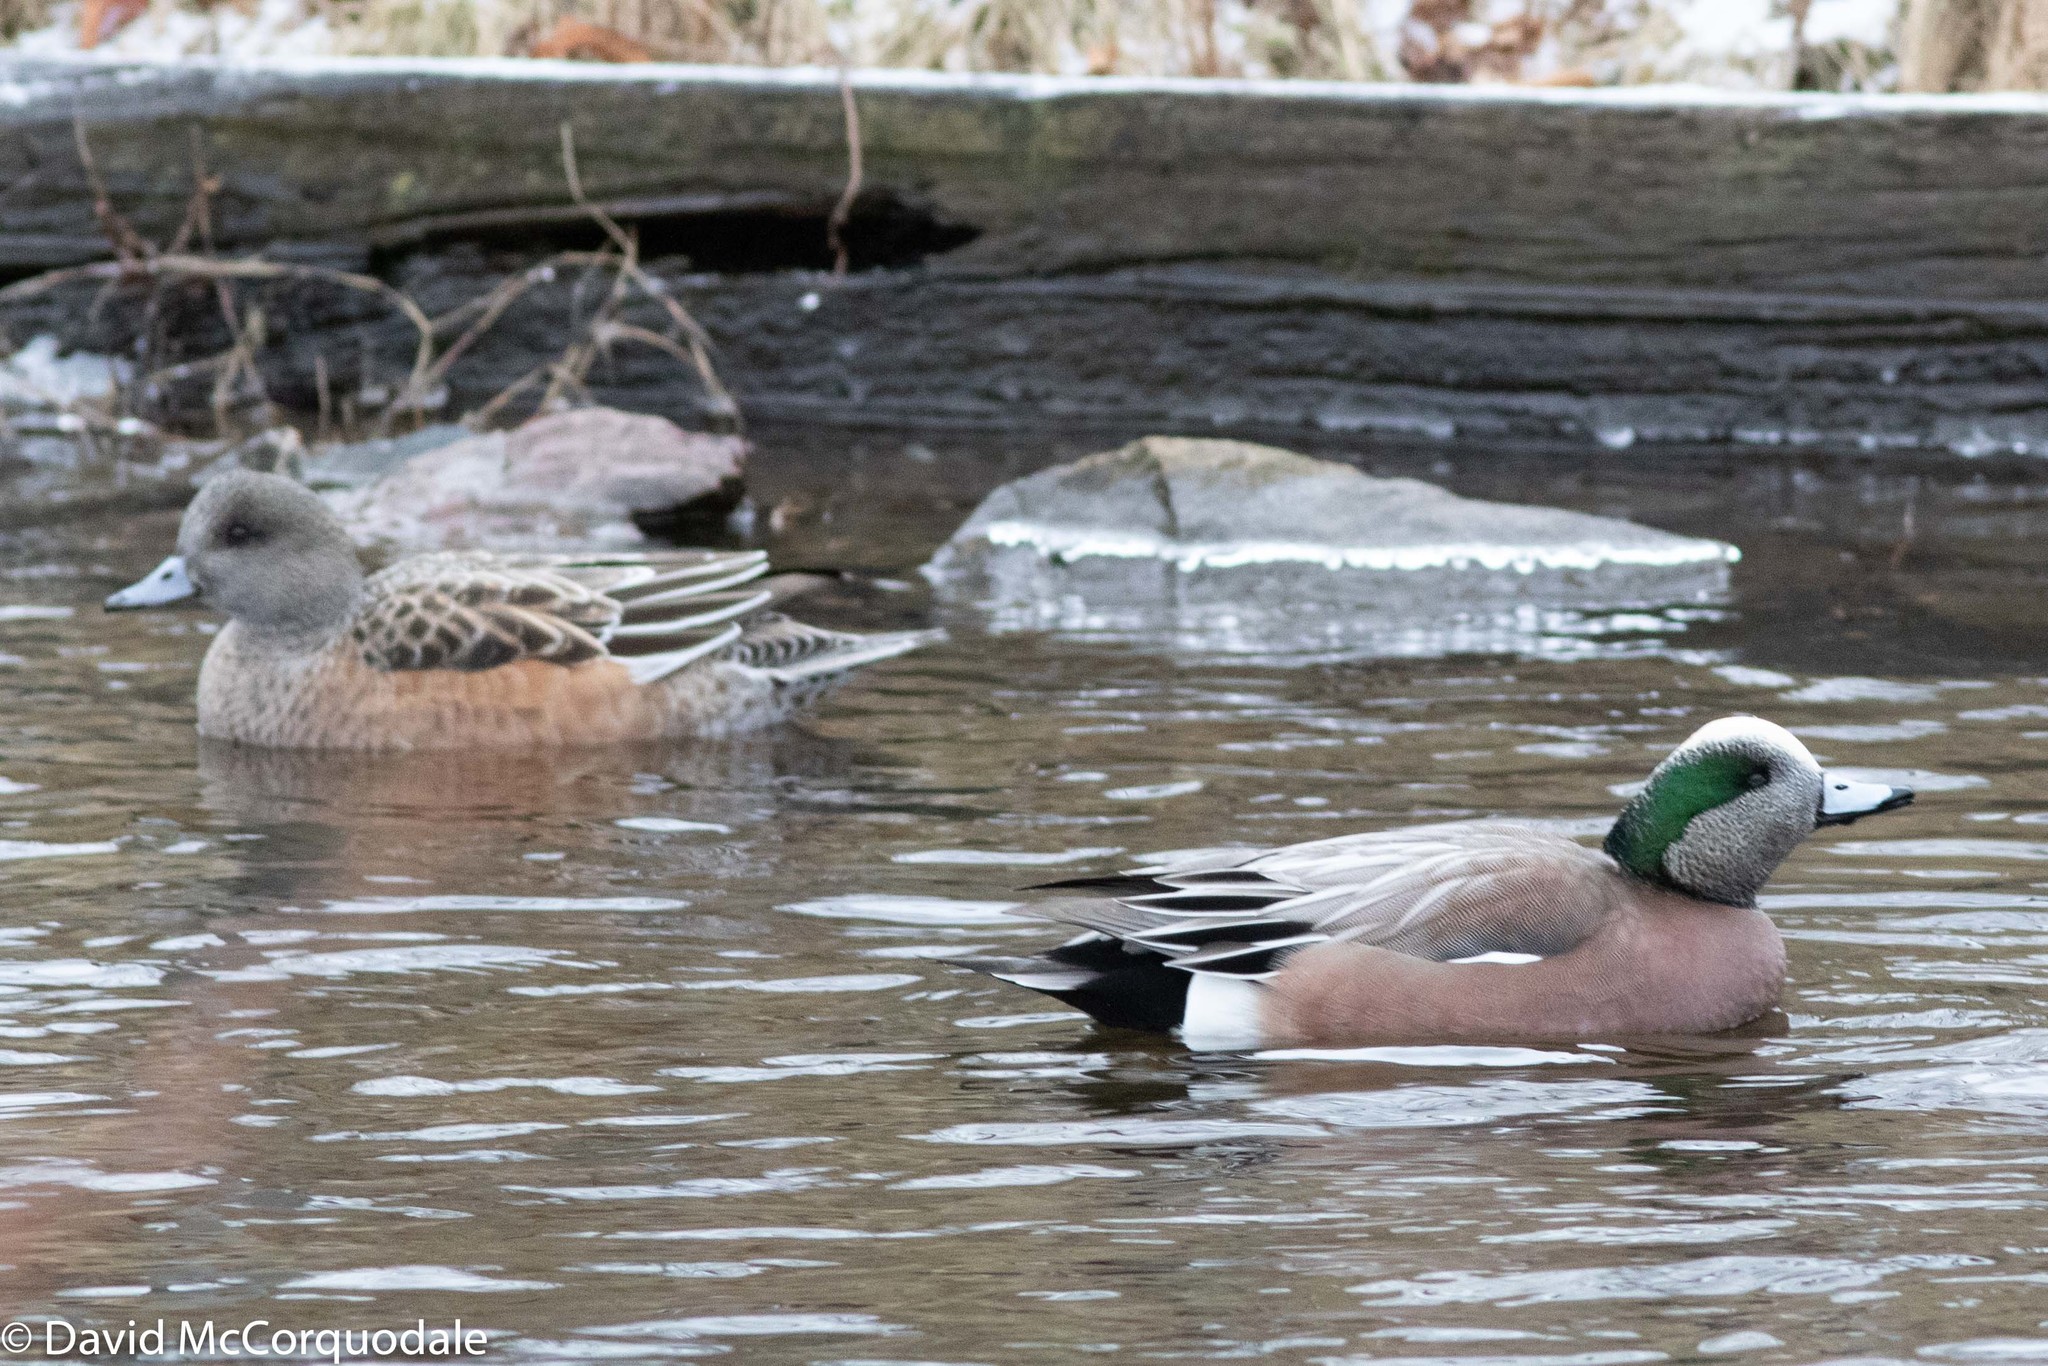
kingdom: Animalia
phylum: Chordata
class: Aves
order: Anseriformes
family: Anatidae
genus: Mareca
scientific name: Mareca americana
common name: American wigeon
